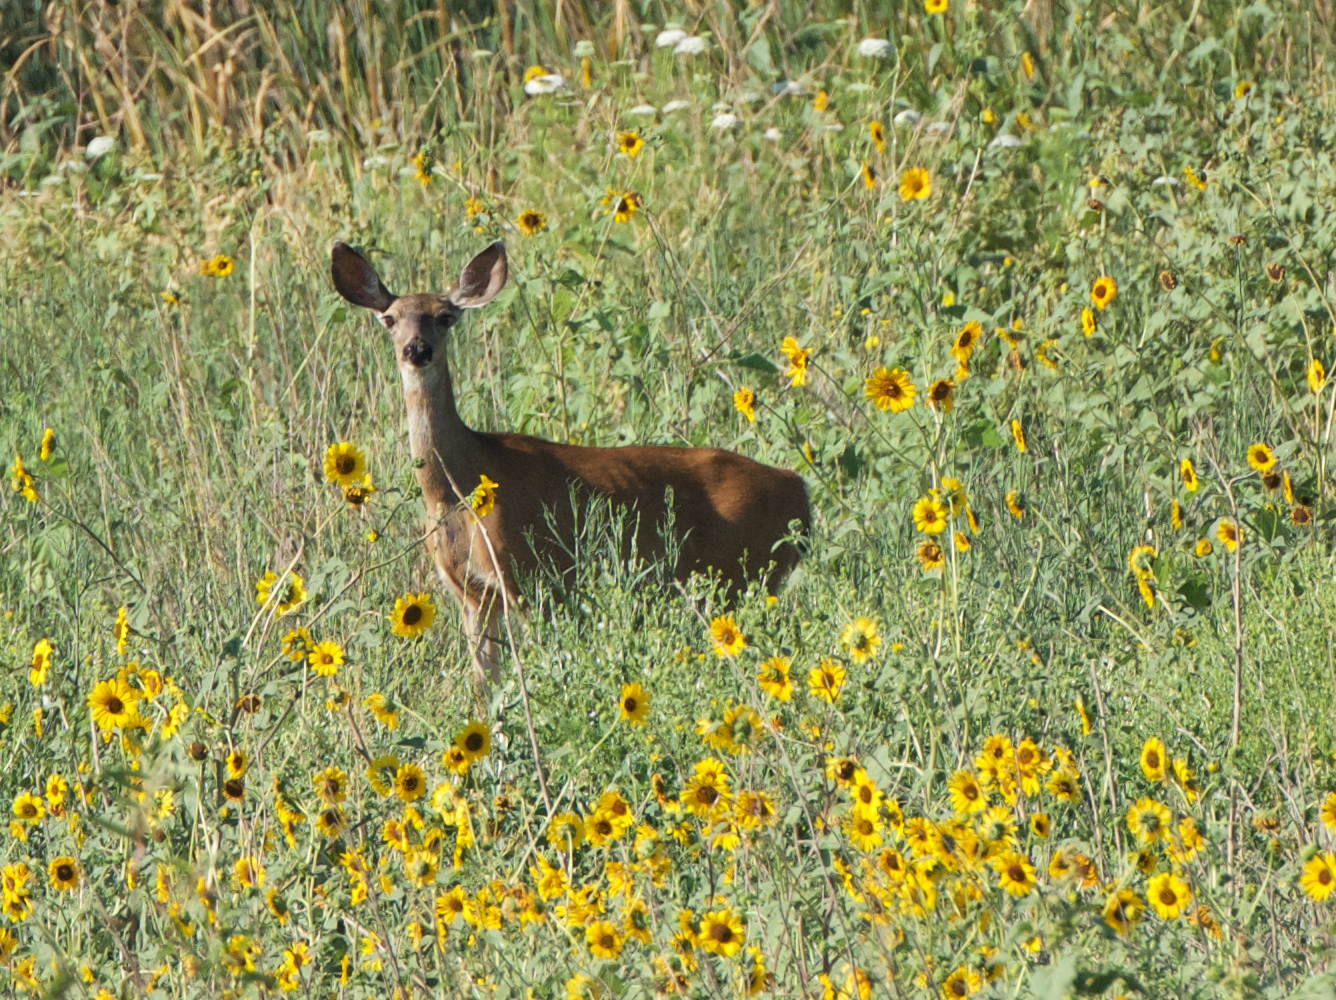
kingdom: Animalia
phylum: Chordata
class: Mammalia
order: Artiodactyla
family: Cervidae
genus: Odocoileus
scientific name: Odocoileus hemionus
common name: Mule deer
